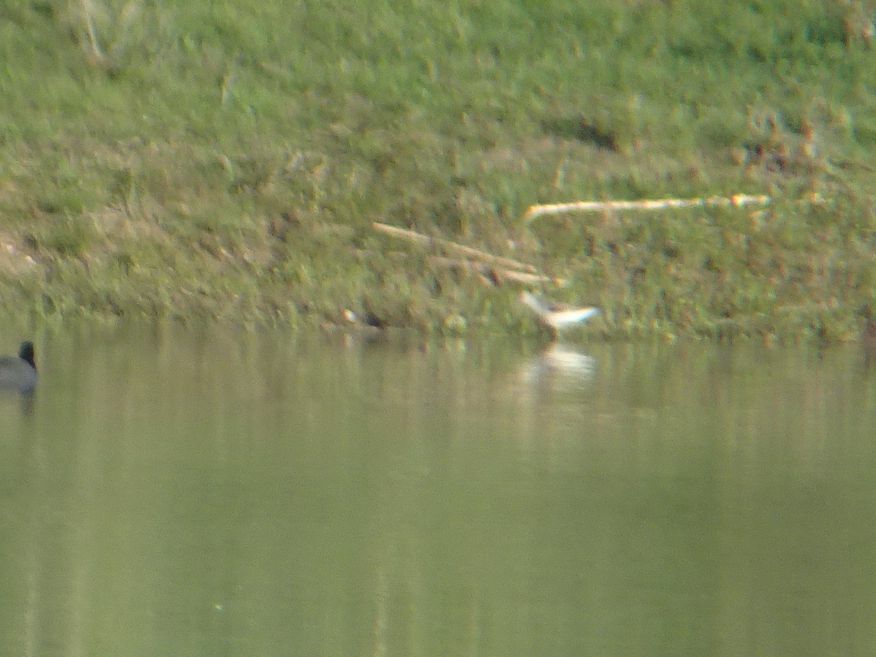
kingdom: Animalia
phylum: Chordata
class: Aves
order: Charadriiformes
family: Scolopacidae
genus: Tringa
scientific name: Tringa nebularia
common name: Common greenshank
